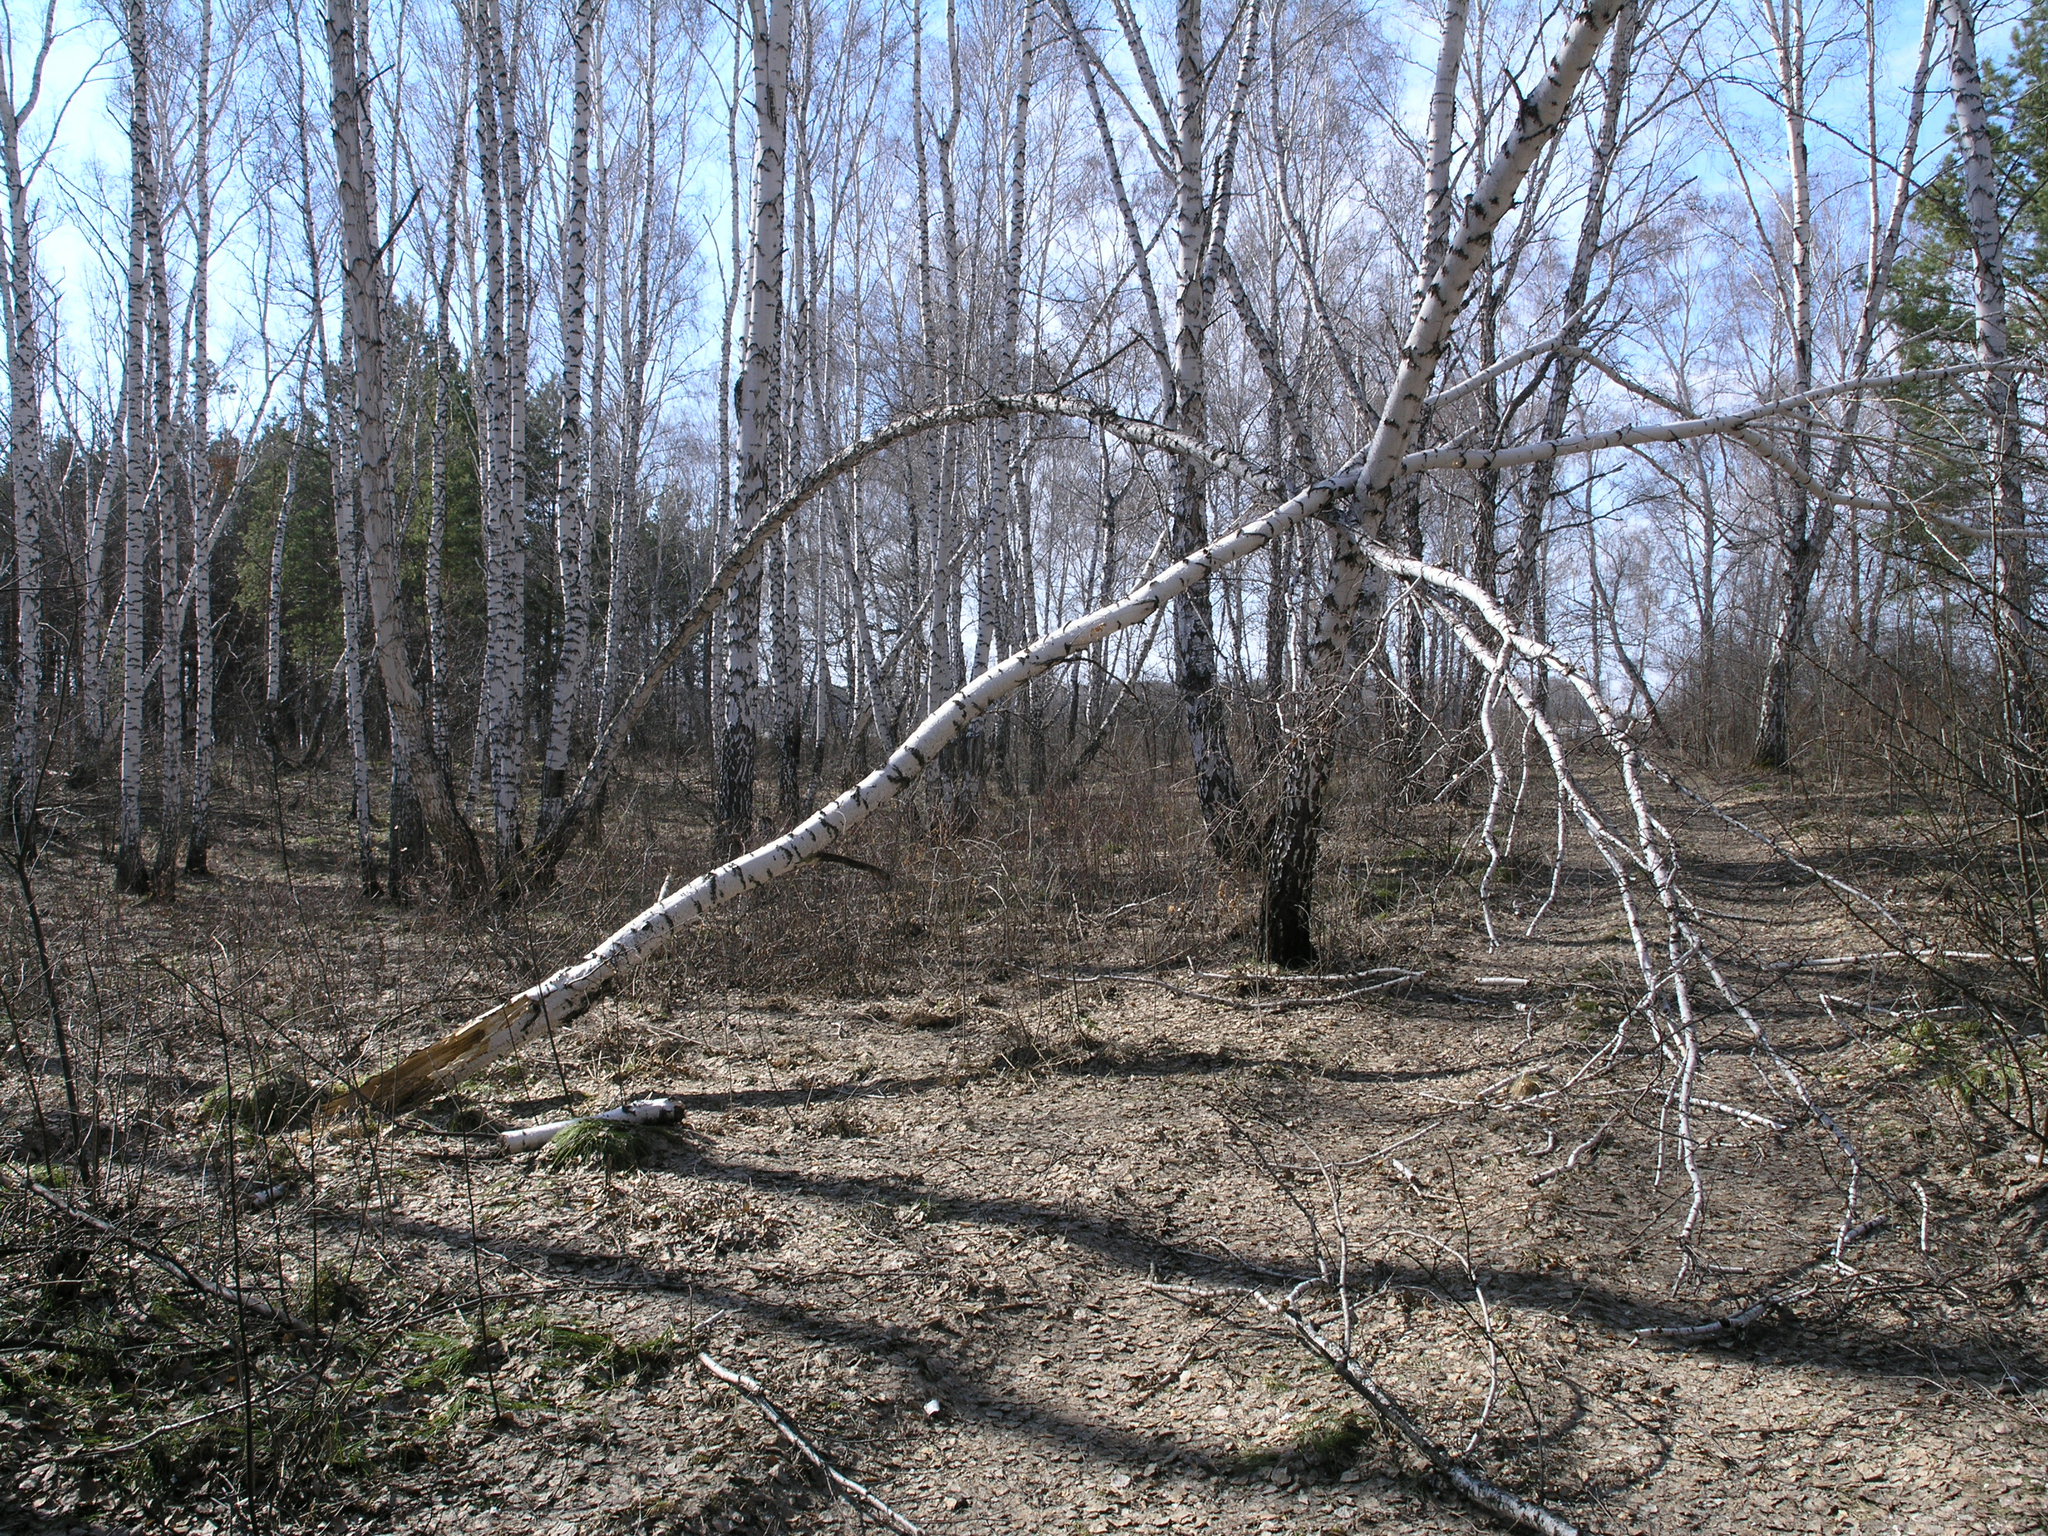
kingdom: Plantae
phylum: Tracheophyta
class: Magnoliopsida
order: Fagales
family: Betulaceae
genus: Betula
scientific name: Betula pendula
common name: Silver birch
